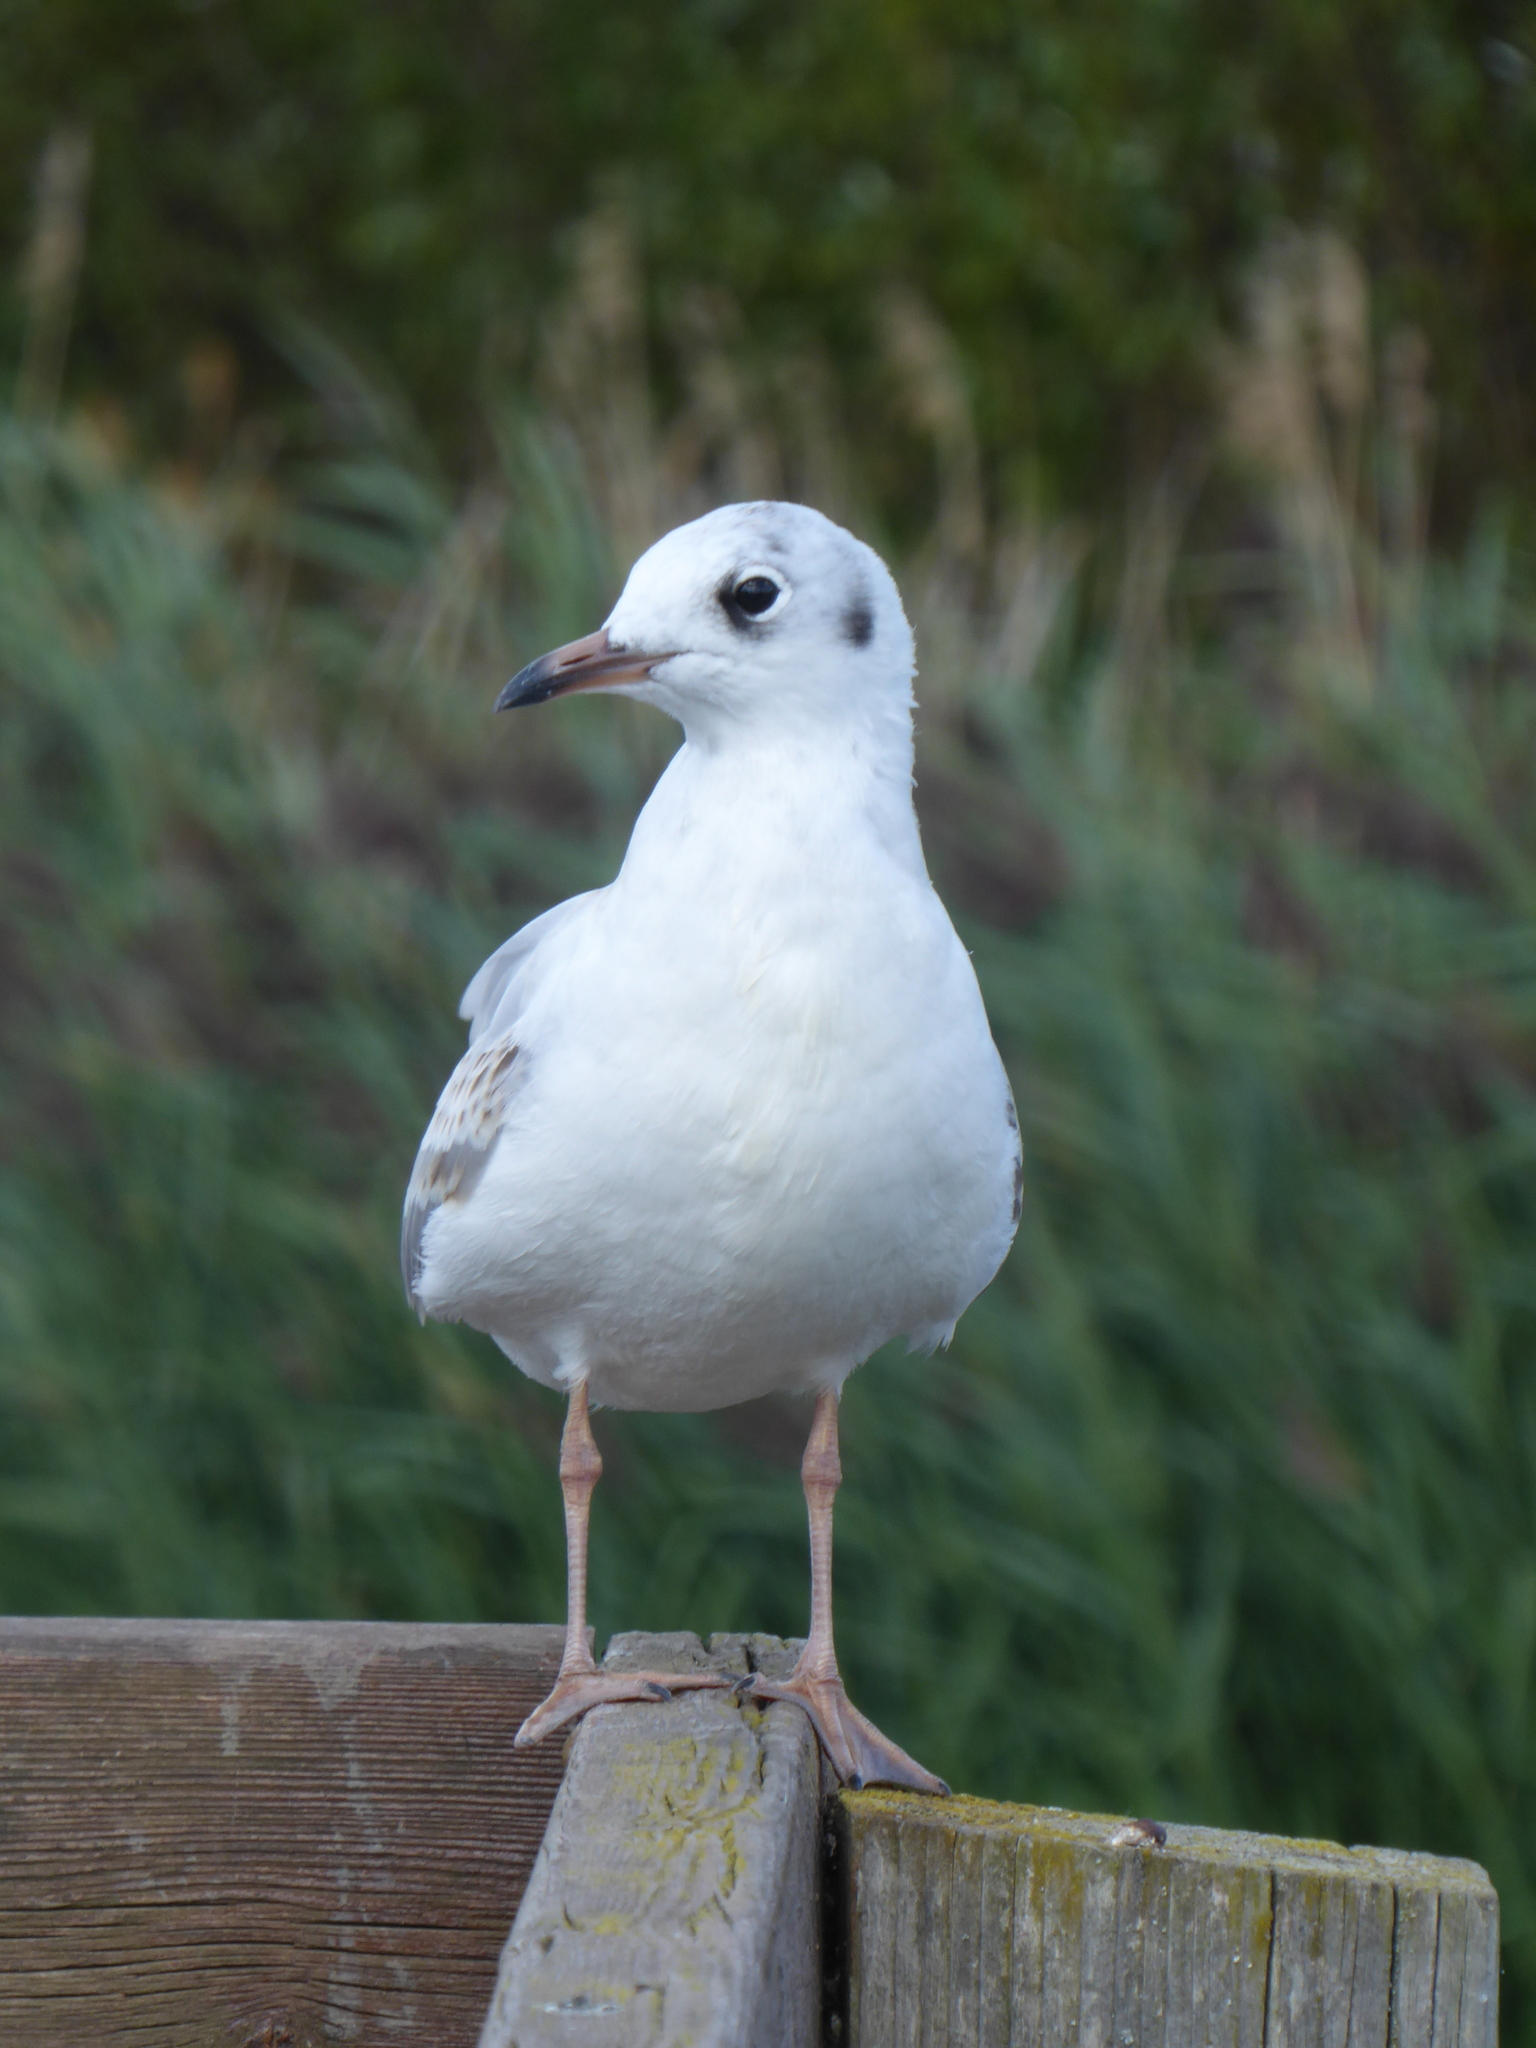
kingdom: Animalia
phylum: Chordata
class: Aves
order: Charadriiformes
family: Laridae
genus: Chroicocephalus
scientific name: Chroicocephalus ridibundus
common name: Black-headed gull
